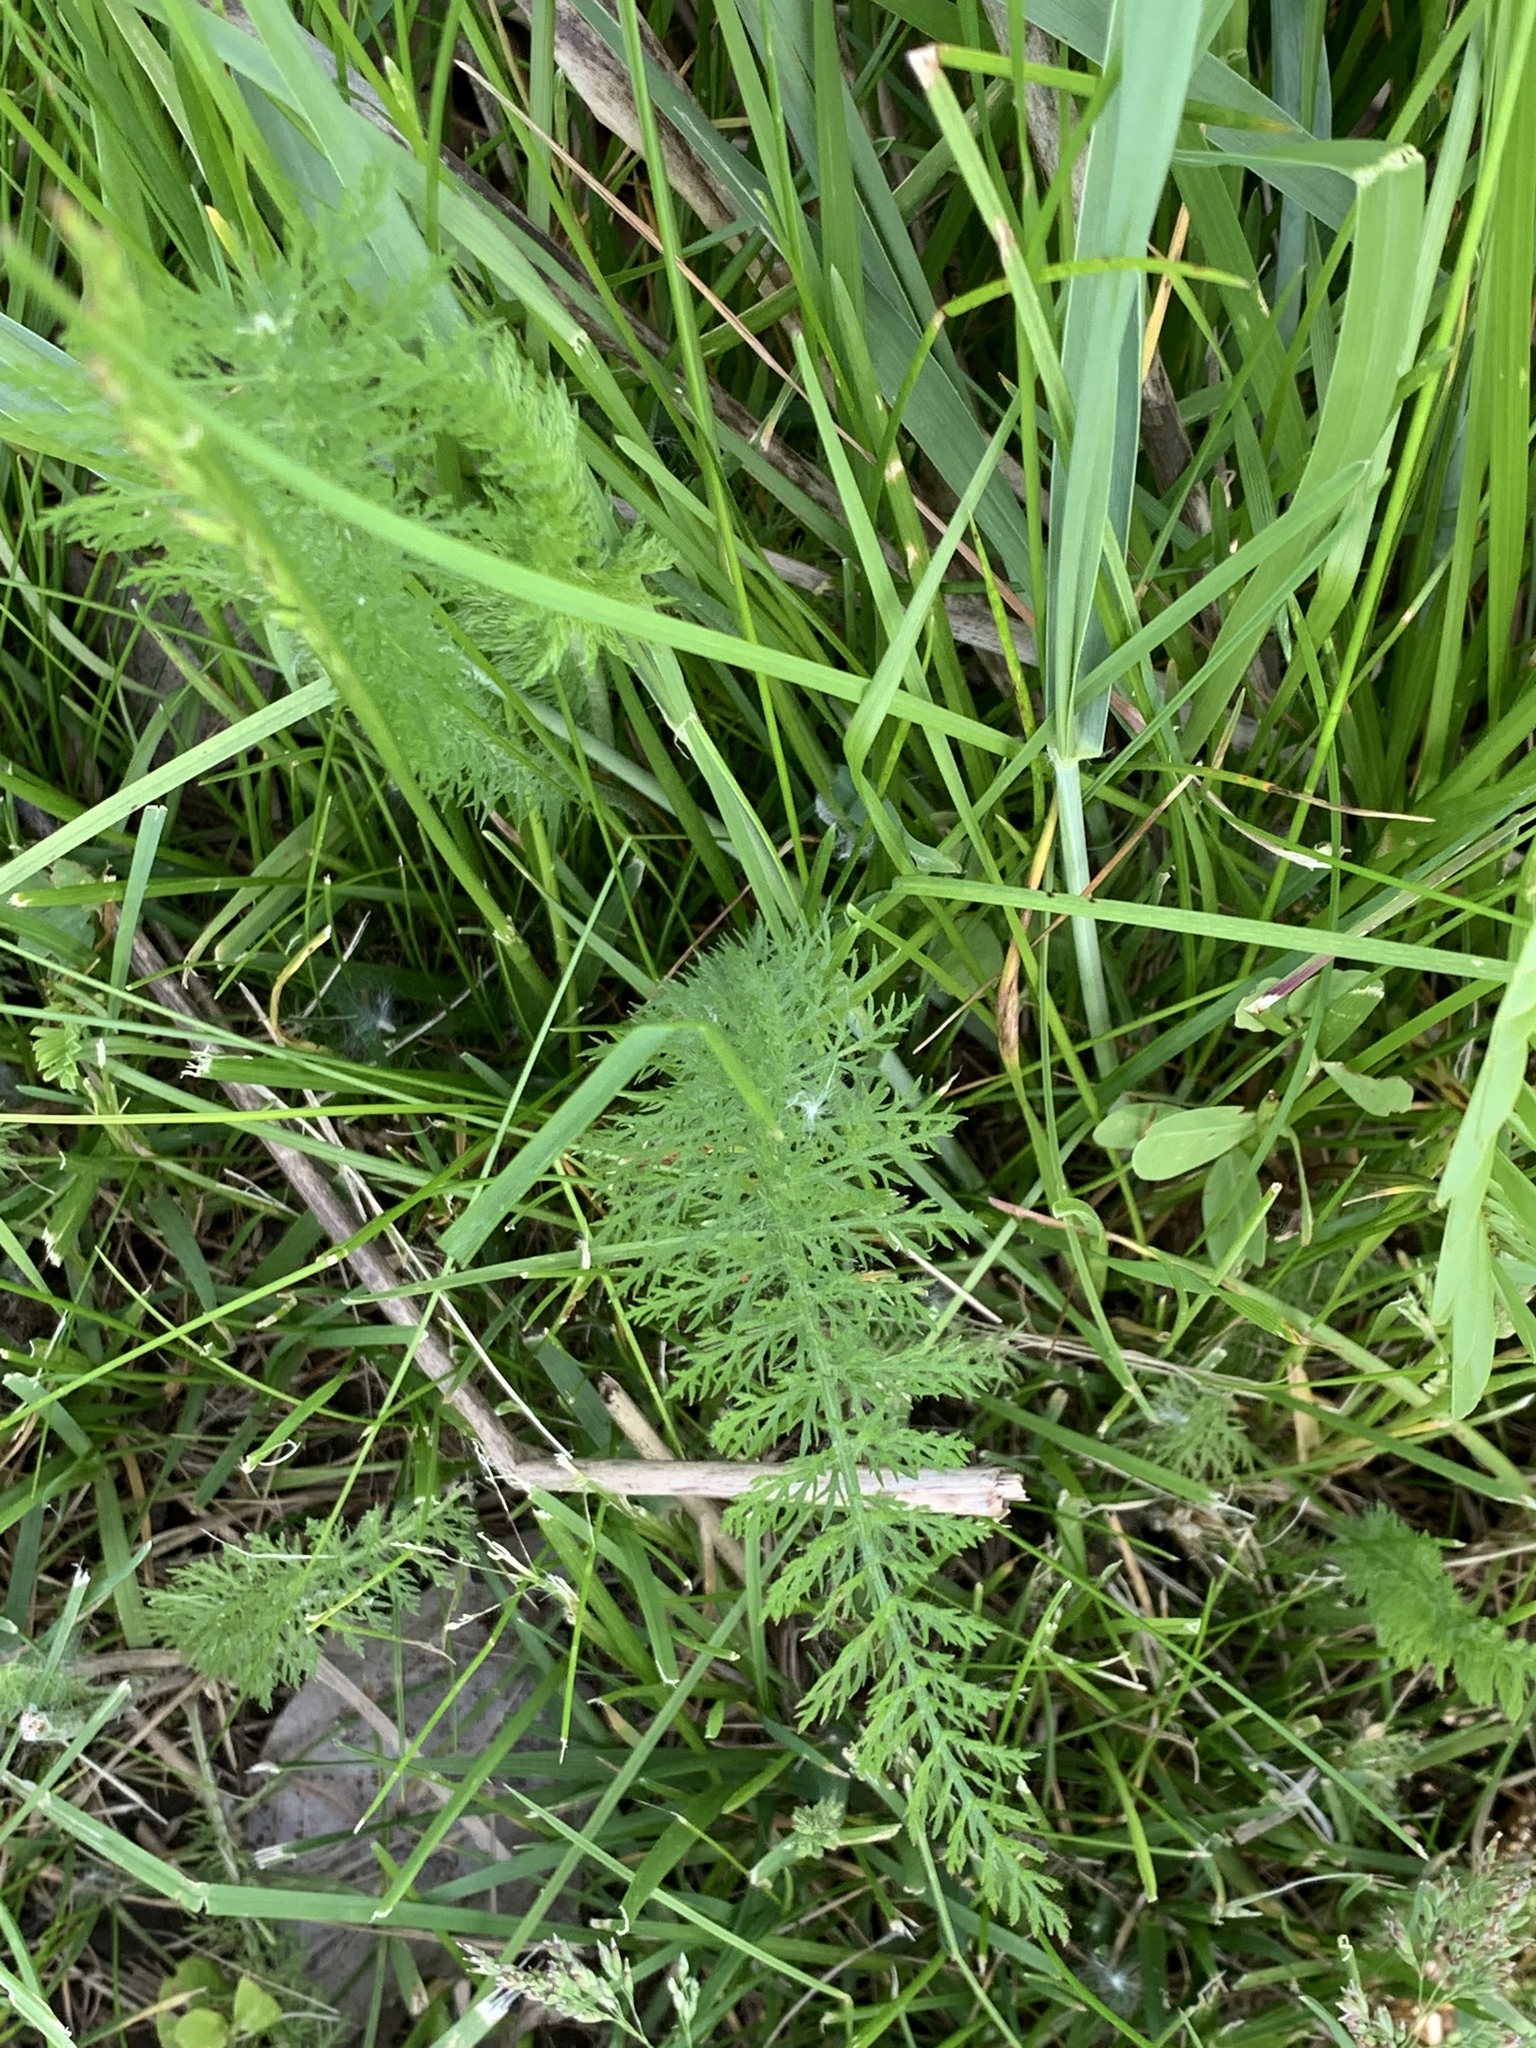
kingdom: Plantae
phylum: Tracheophyta
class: Magnoliopsida
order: Asterales
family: Asteraceae
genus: Achillea
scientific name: Achillea millefolium
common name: Yarrow
